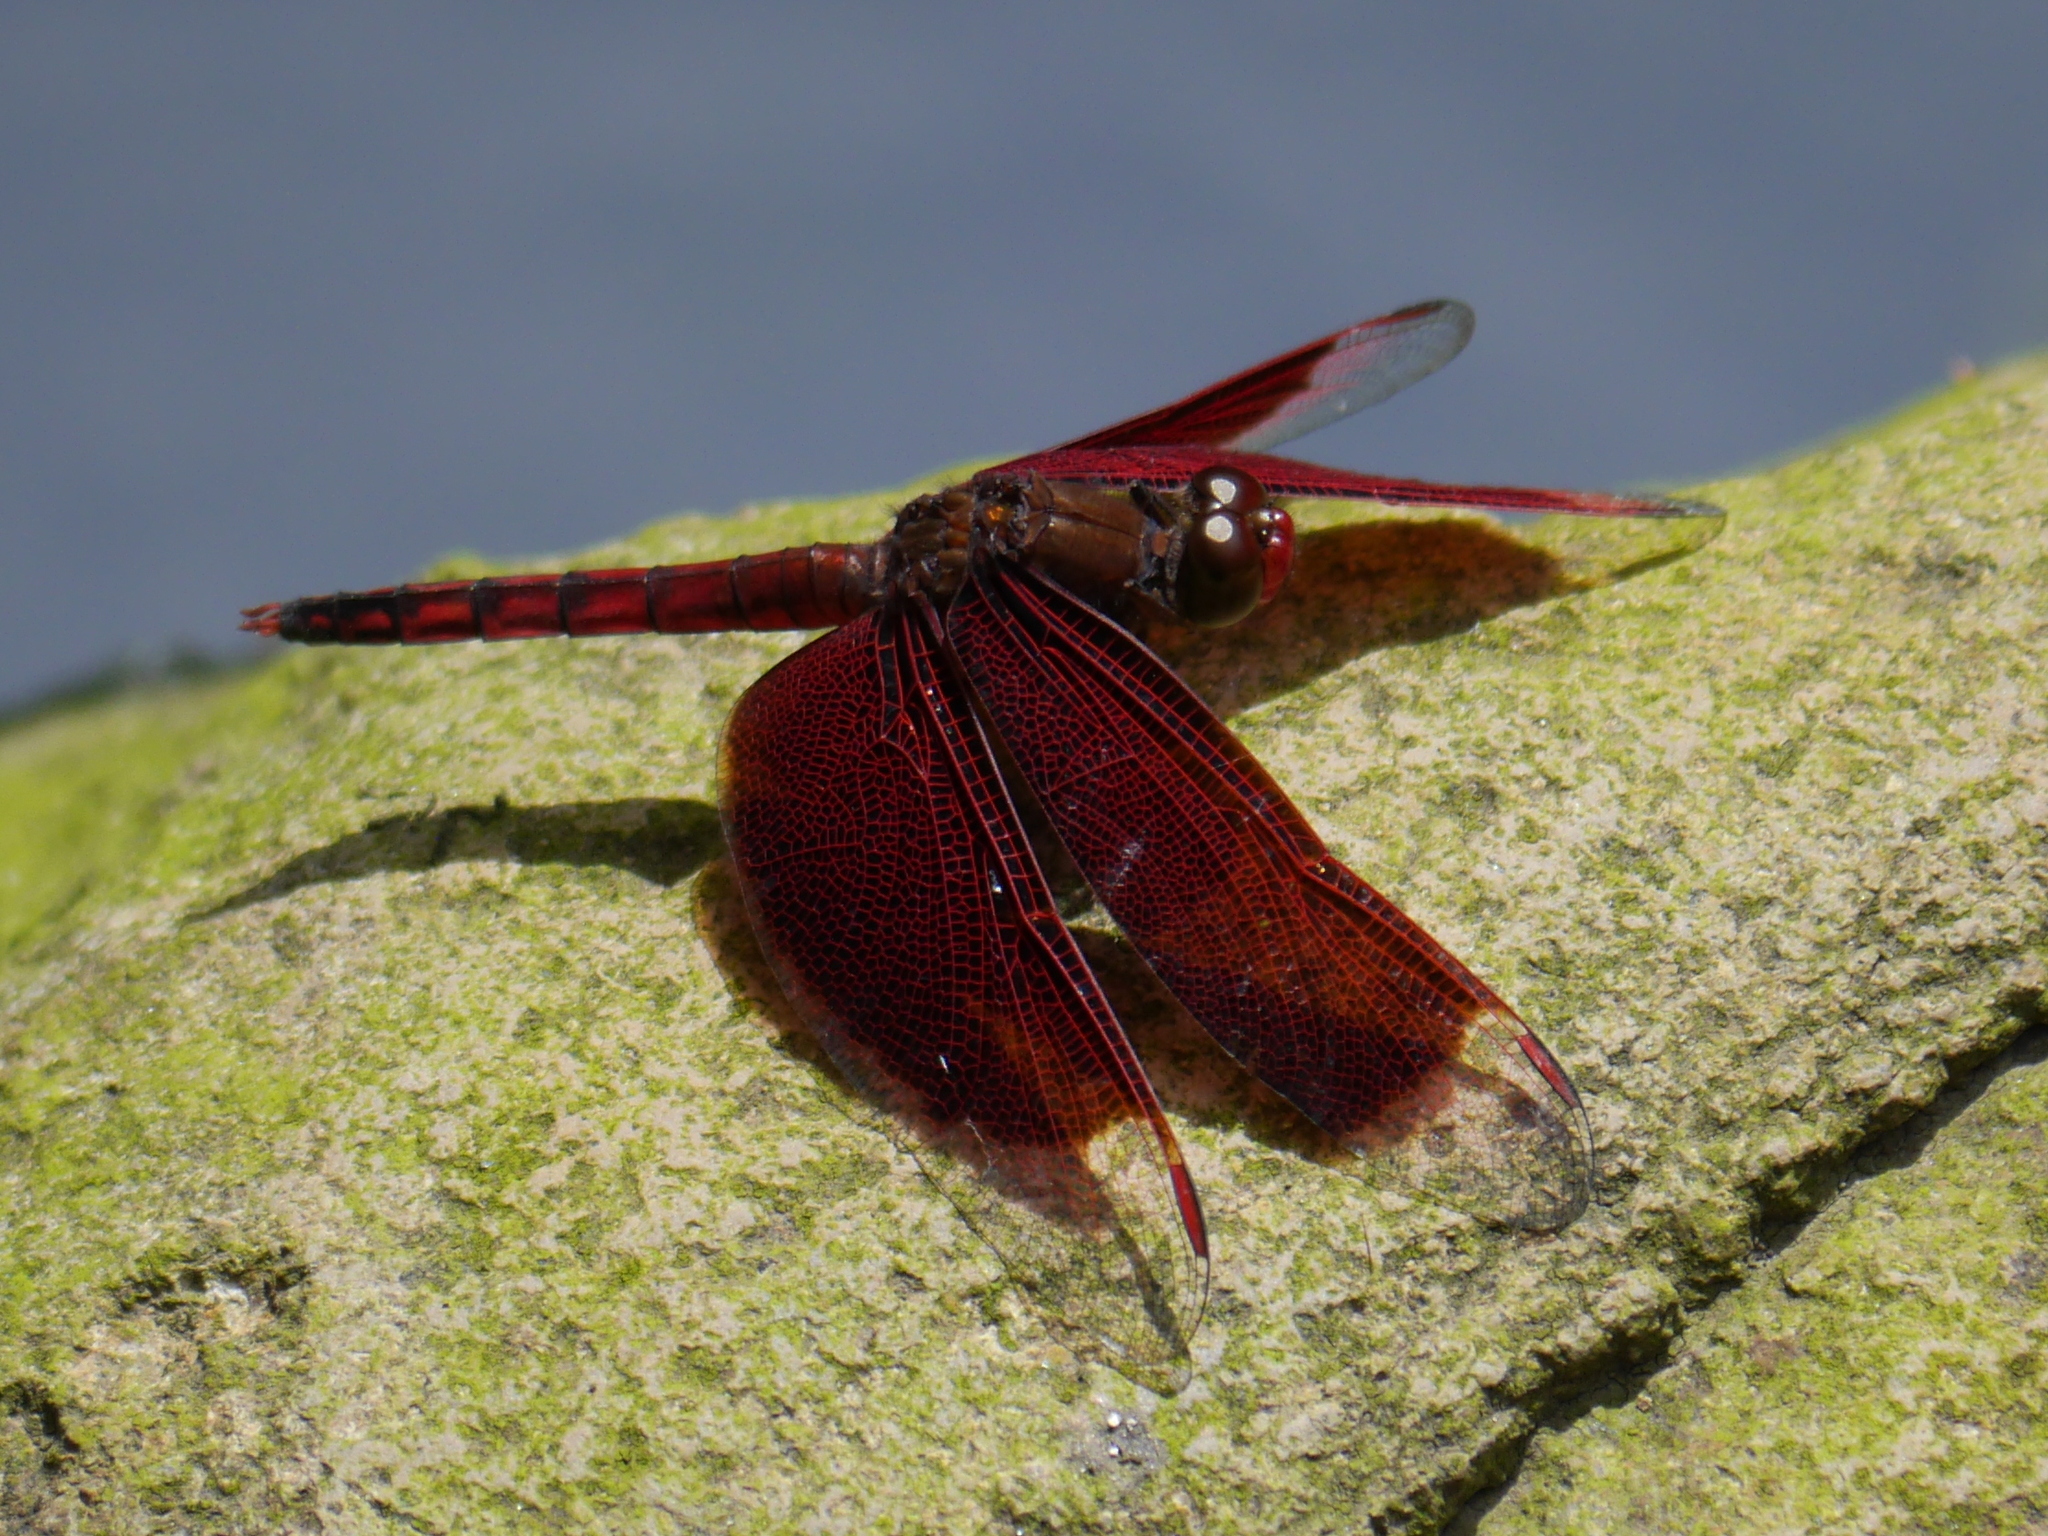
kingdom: Animalia
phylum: Arthropoda
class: Insecta
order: Odonata
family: Libellulidae
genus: Neurothemis
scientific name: Neurothemis ramburii
